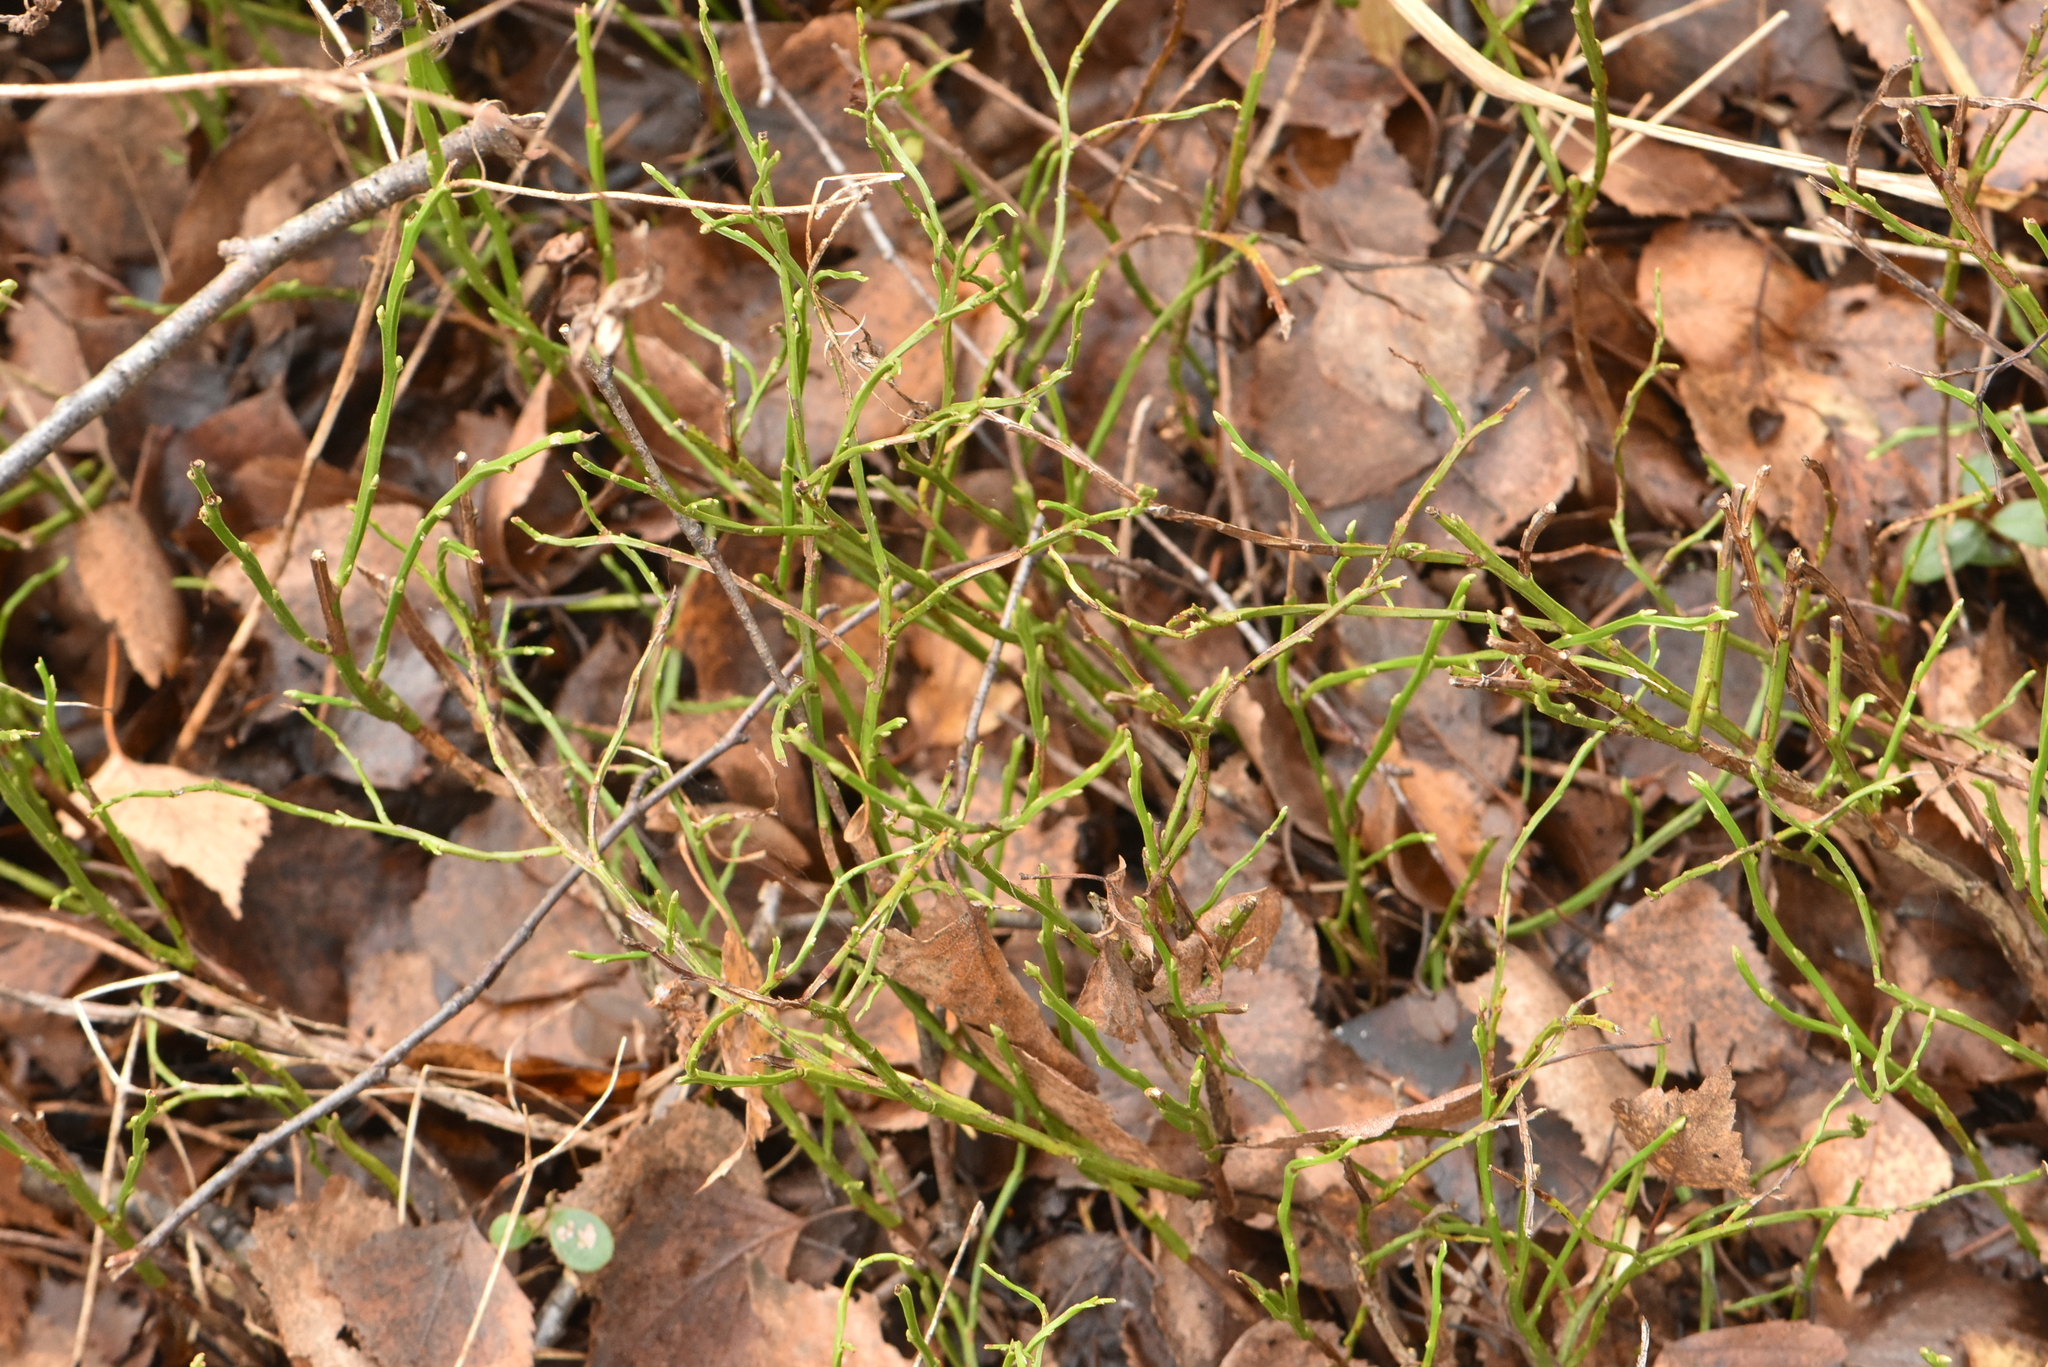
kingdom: Plantae
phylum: Tracheophyta
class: Magnoliopsida
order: Ericales
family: Ericaceae
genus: Vaccinium
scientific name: Vaccinium myrtillus
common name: Bilberry
